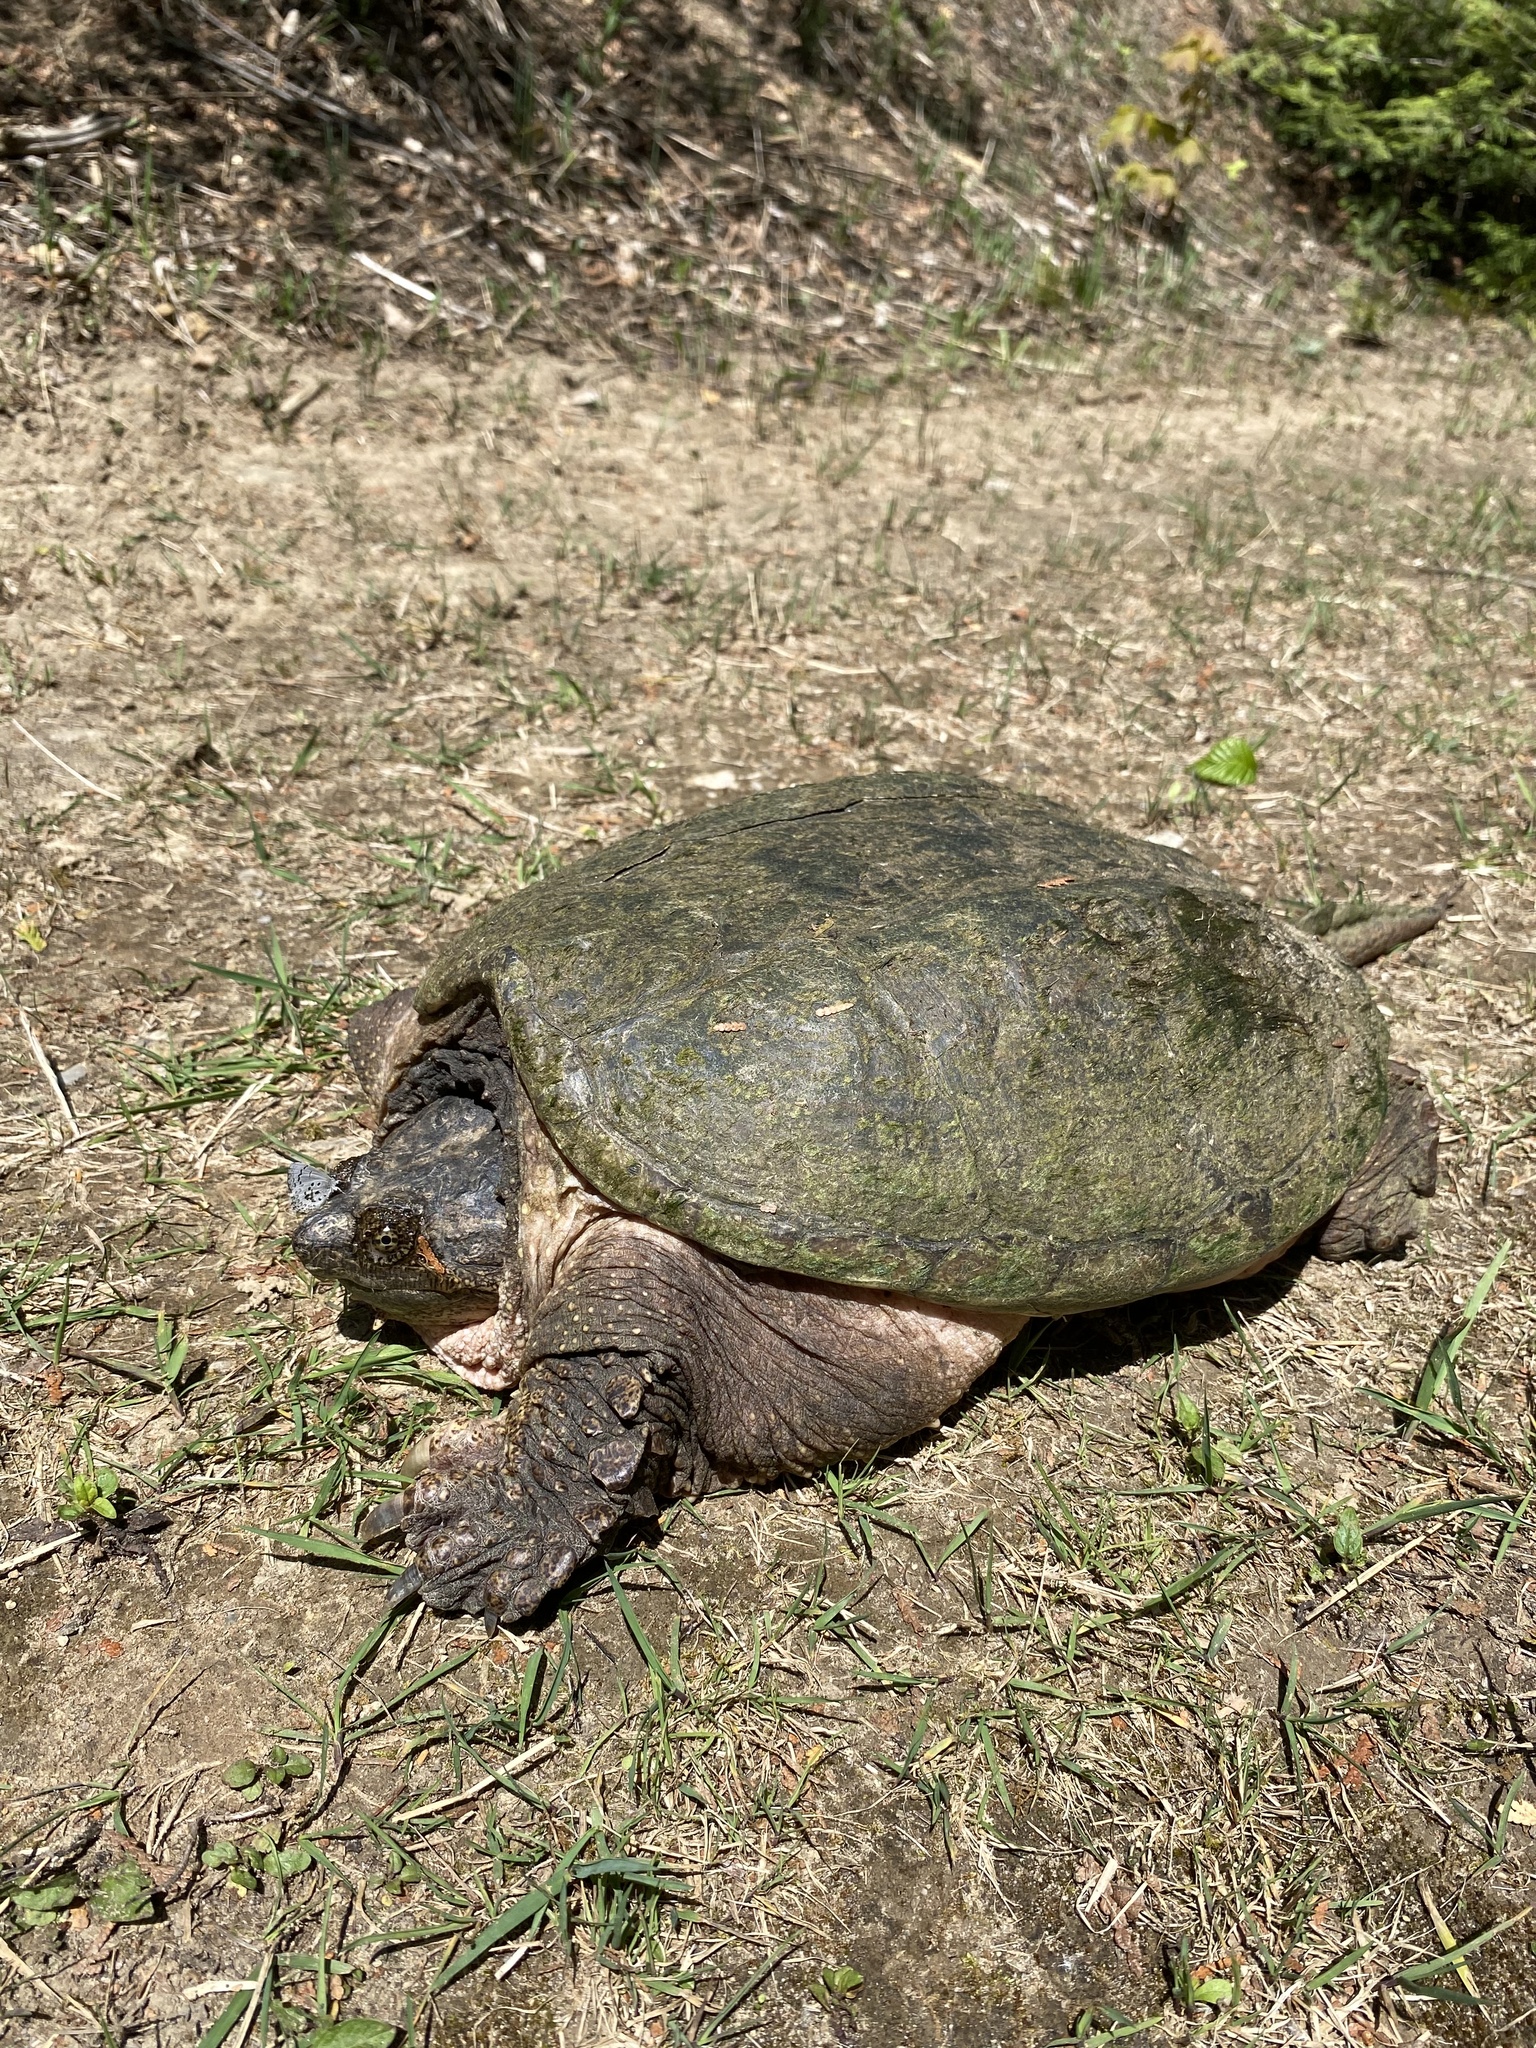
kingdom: Animalia
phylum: Chordata
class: Testudines
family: Chelydridae
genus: Chelydra
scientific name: Chelydra serpentina
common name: Common snapping turtle
